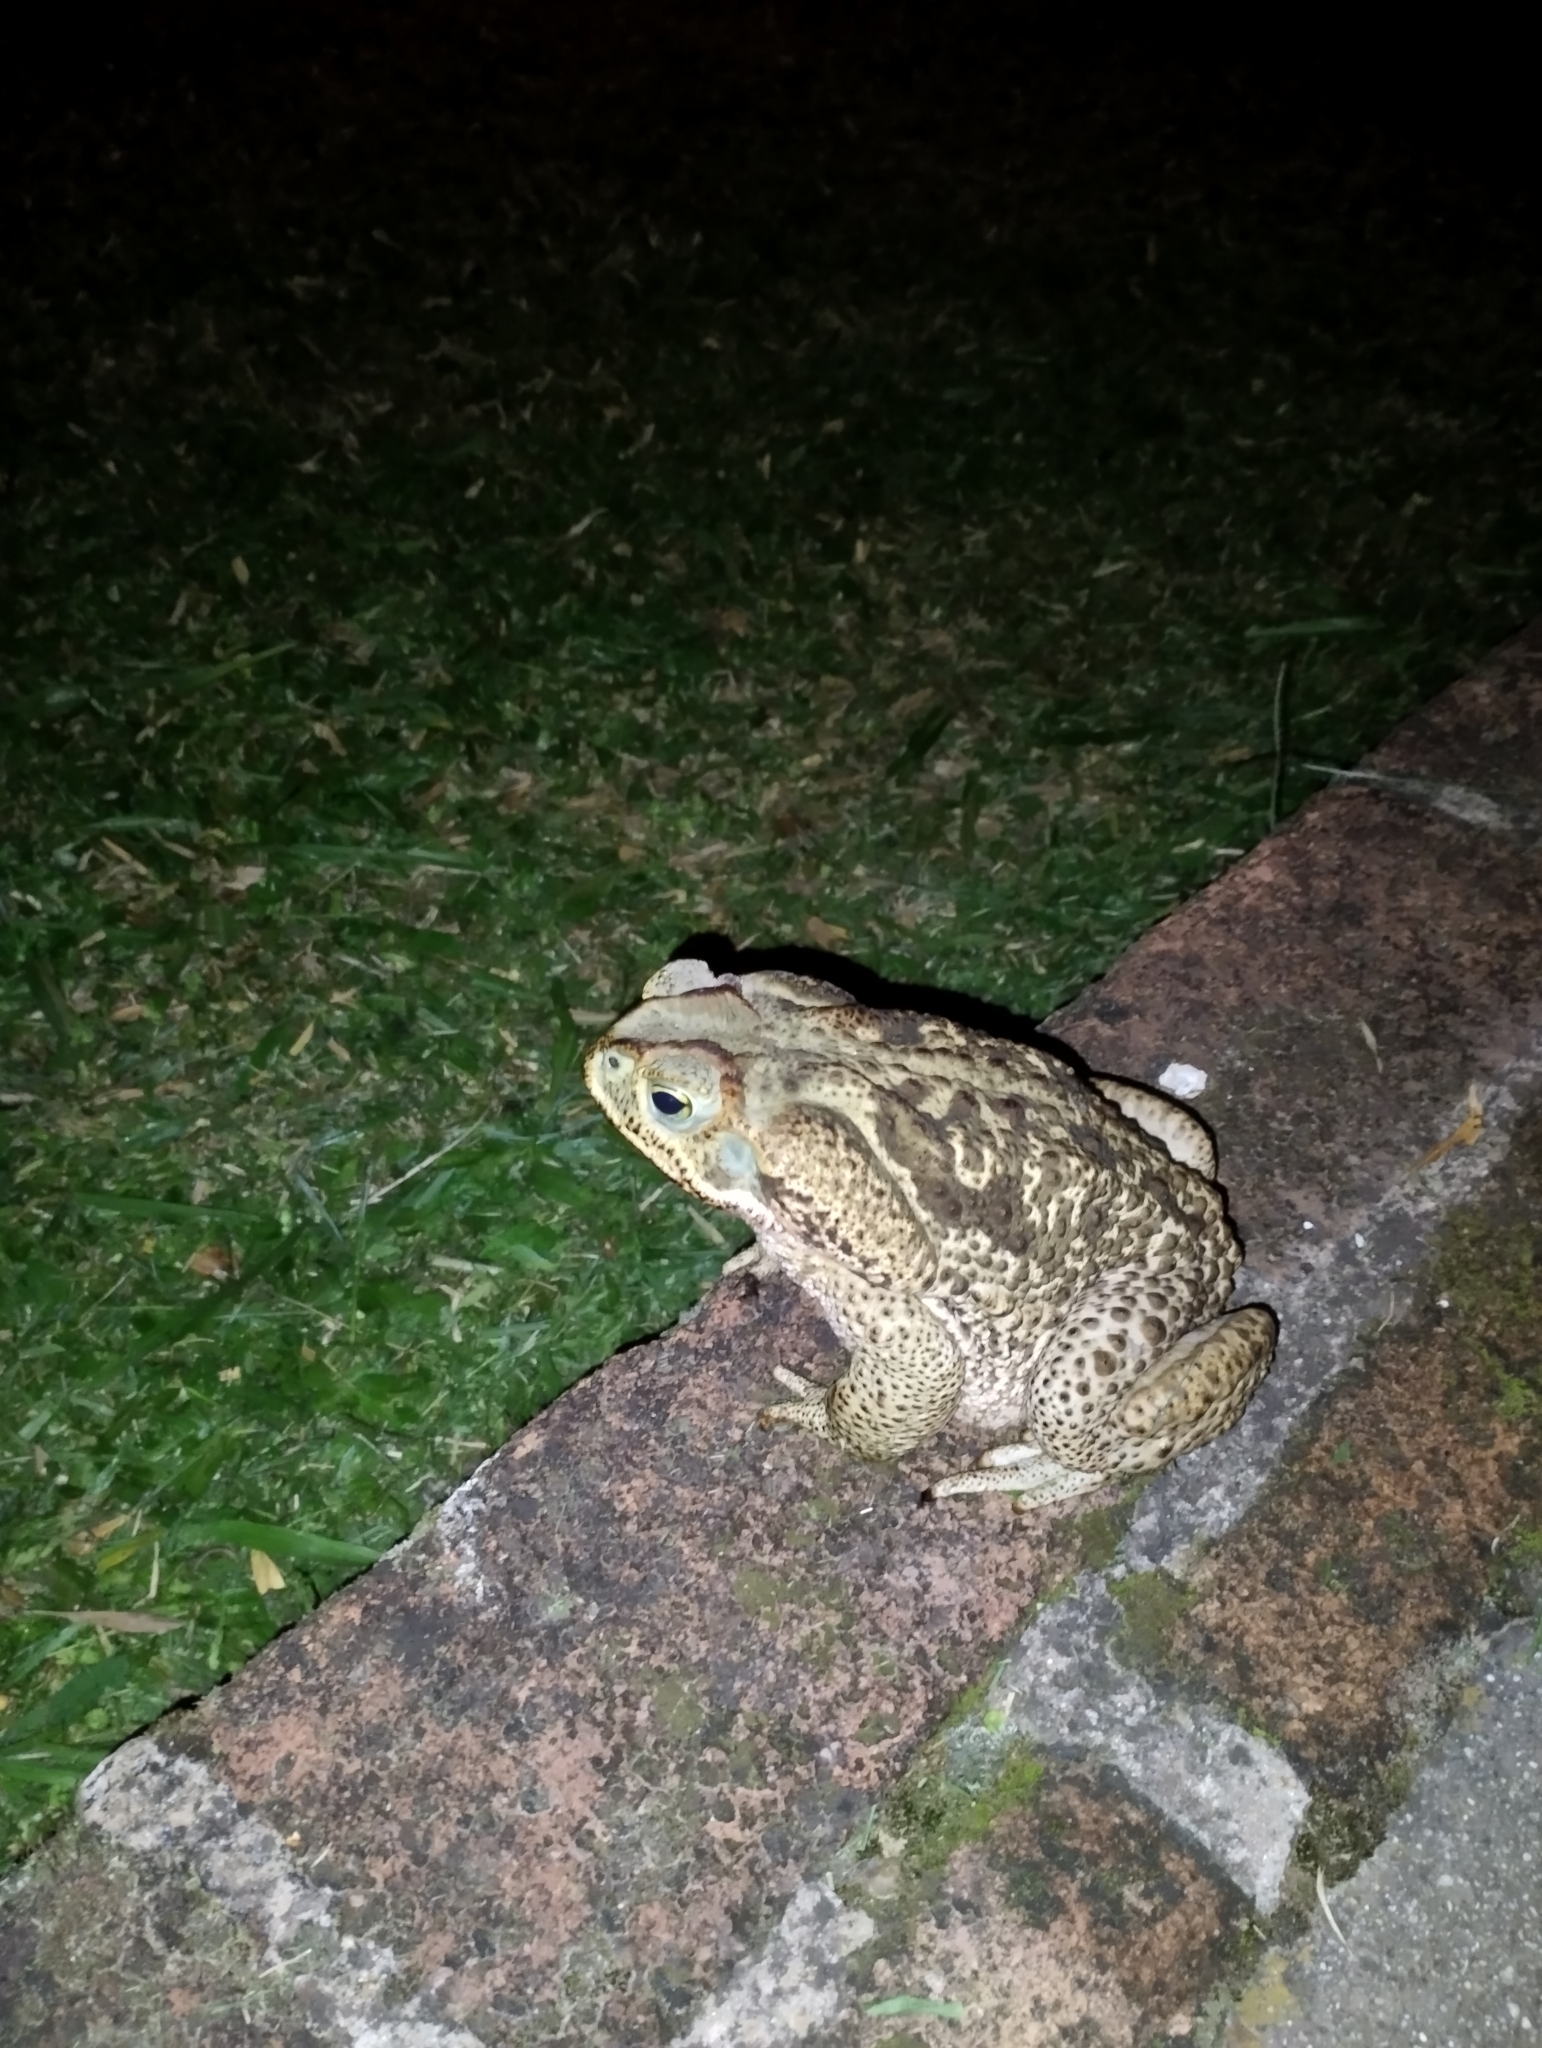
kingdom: Animalia
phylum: Chordata
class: Amphibia
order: Anura
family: Bufonidae
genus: Rhinella
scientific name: Rhinella diptycha
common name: Cope's toad
